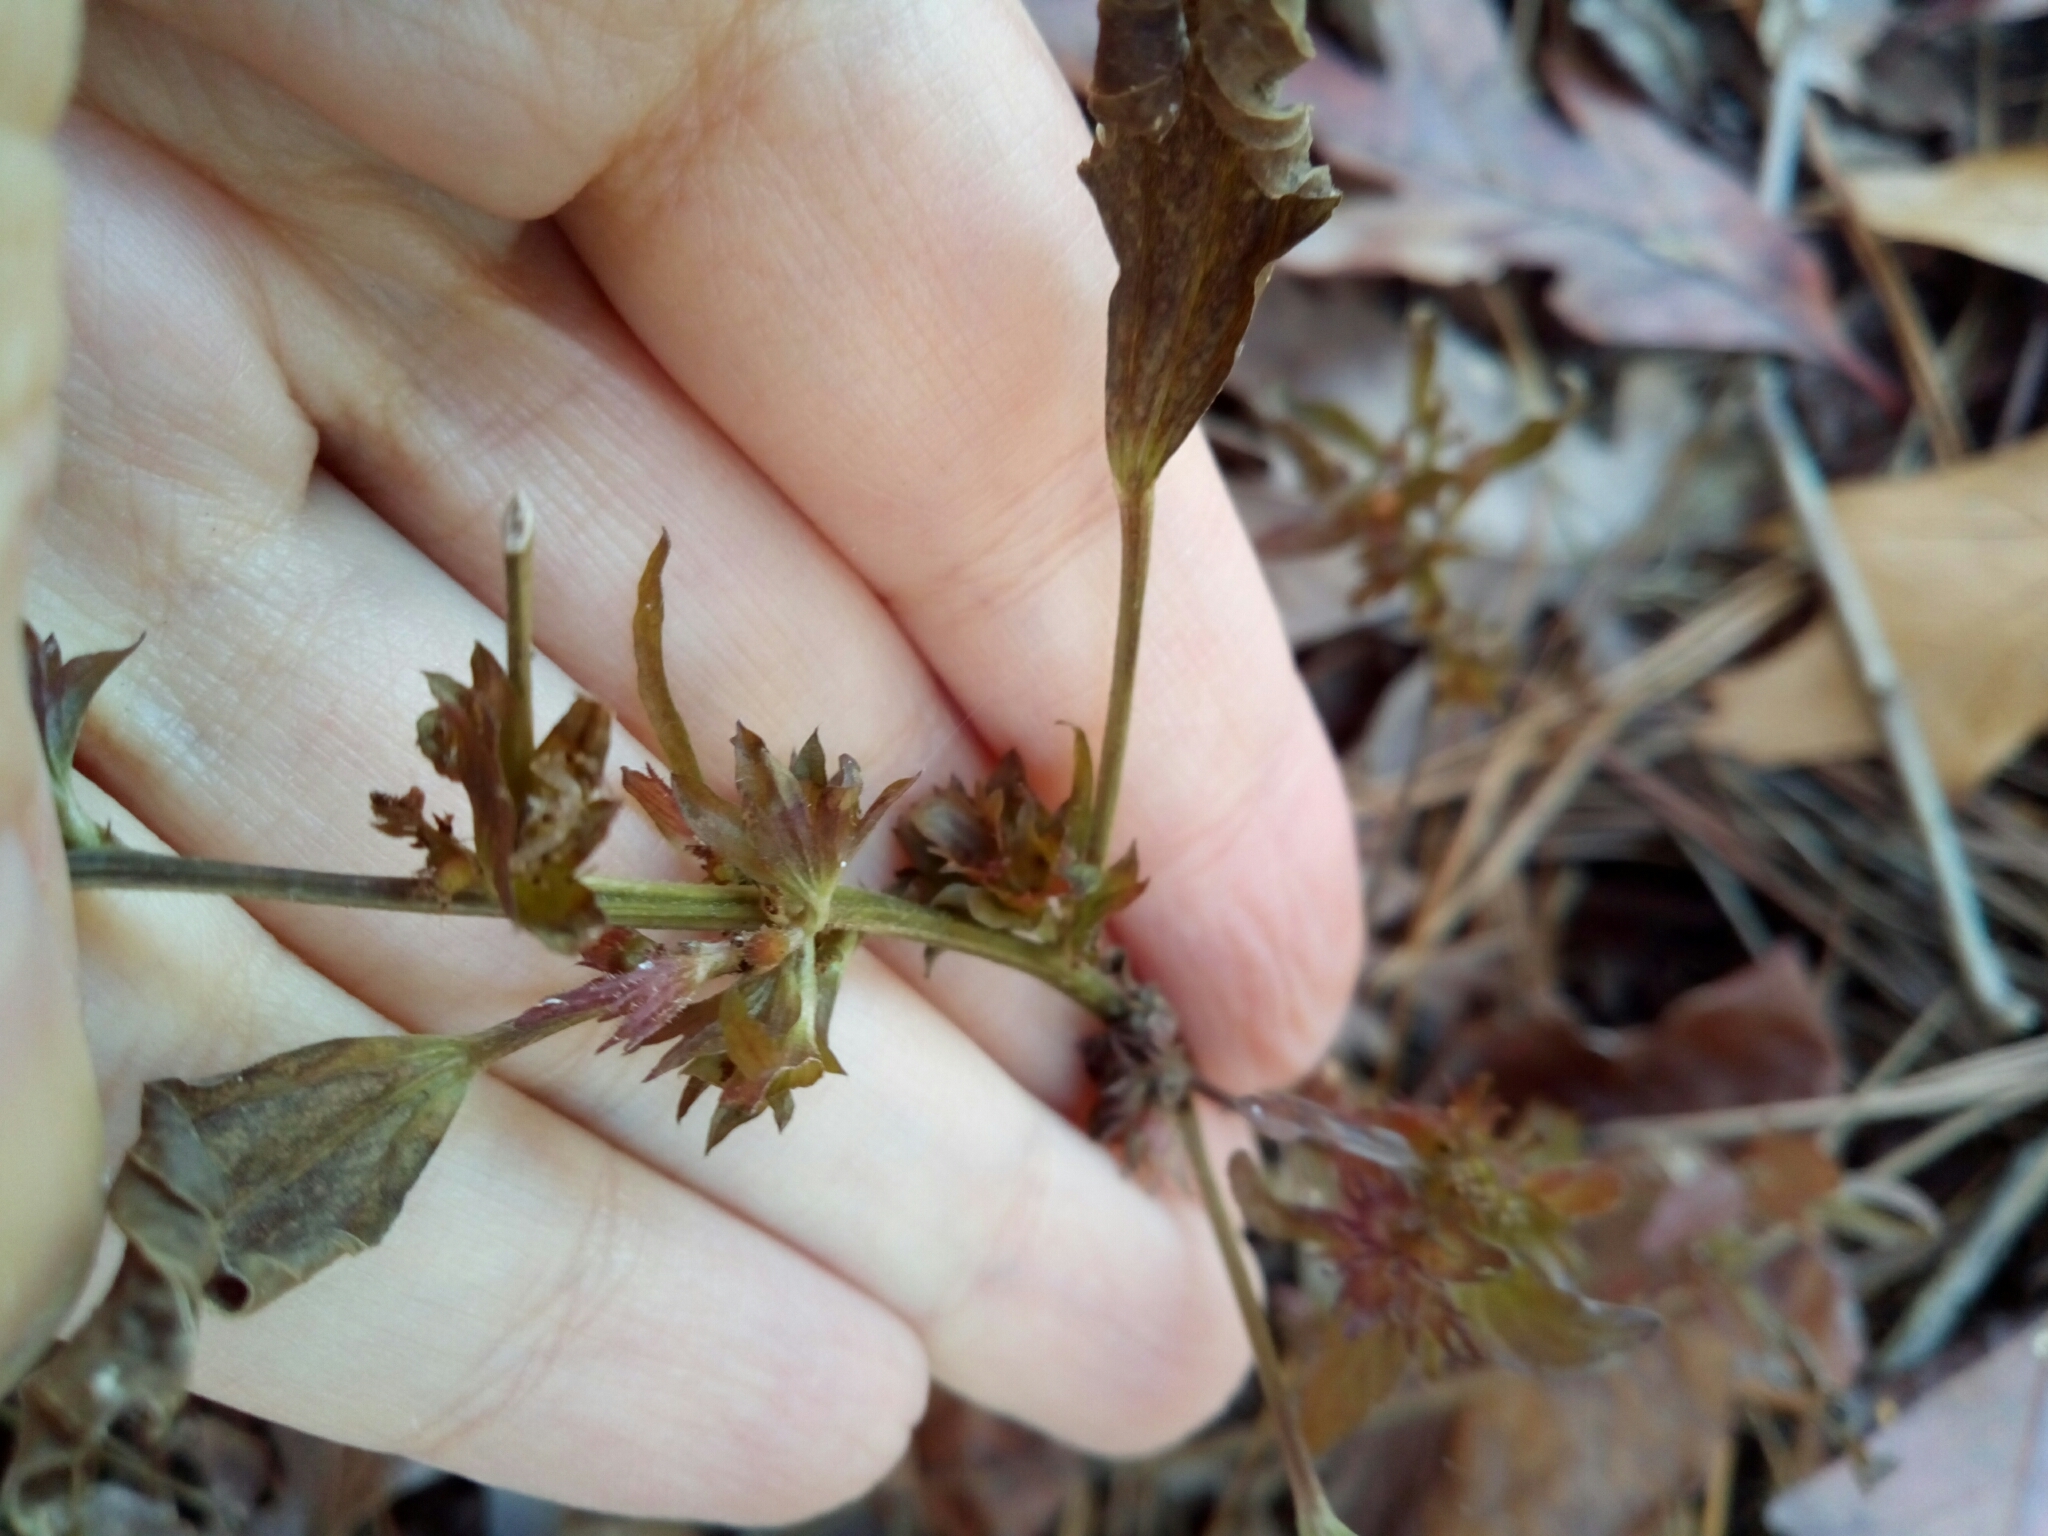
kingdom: Plantae
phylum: Tracheophyta
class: Magnoliopsida
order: Malpighiales
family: Euphorbiaceae
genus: Acalypha
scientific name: Acalypha gracilens
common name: Slender three-seeded mercury
